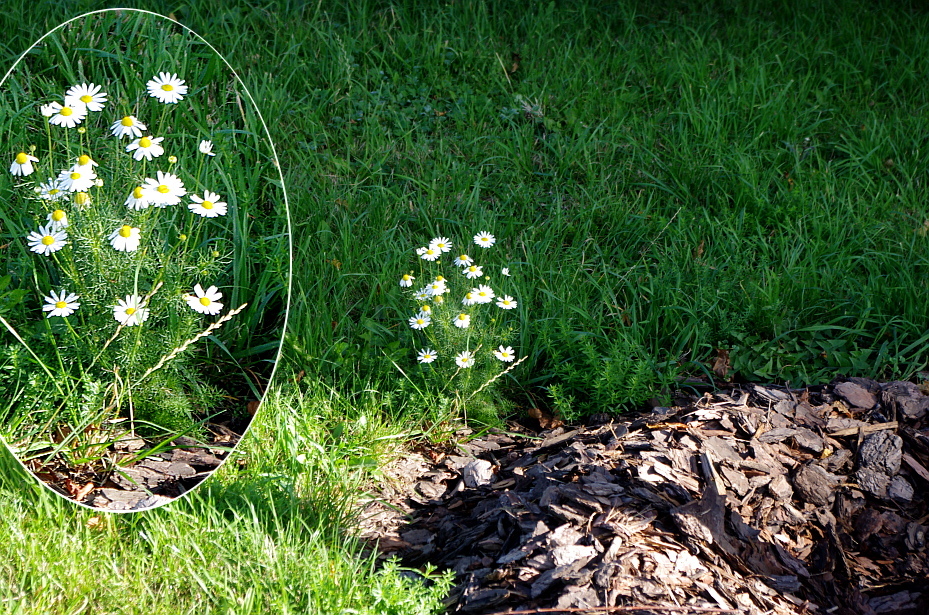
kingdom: Plantae
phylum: Tracheophyta
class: Magnoliopsida
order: Asterales
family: Asteraceae
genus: Tripleurospermum
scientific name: Tripleurospermum inodorum
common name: Scentless mayweed
